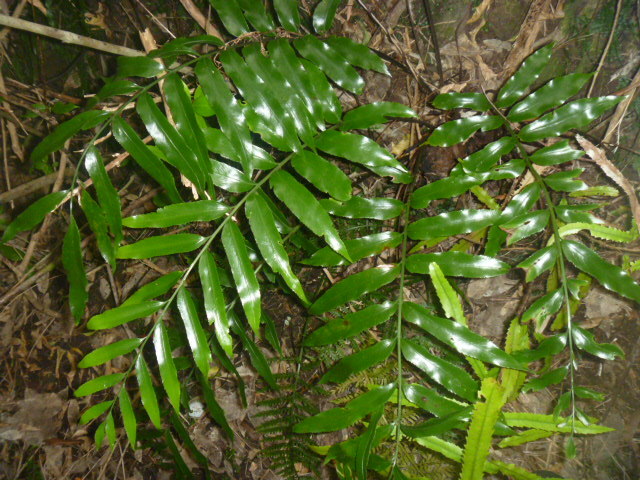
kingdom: Plantae
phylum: Tracheophyta
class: Polypodiopsida
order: Polypodiales
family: Aspleniaceae
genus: Asplenium
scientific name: Asplenium oblongifolium
